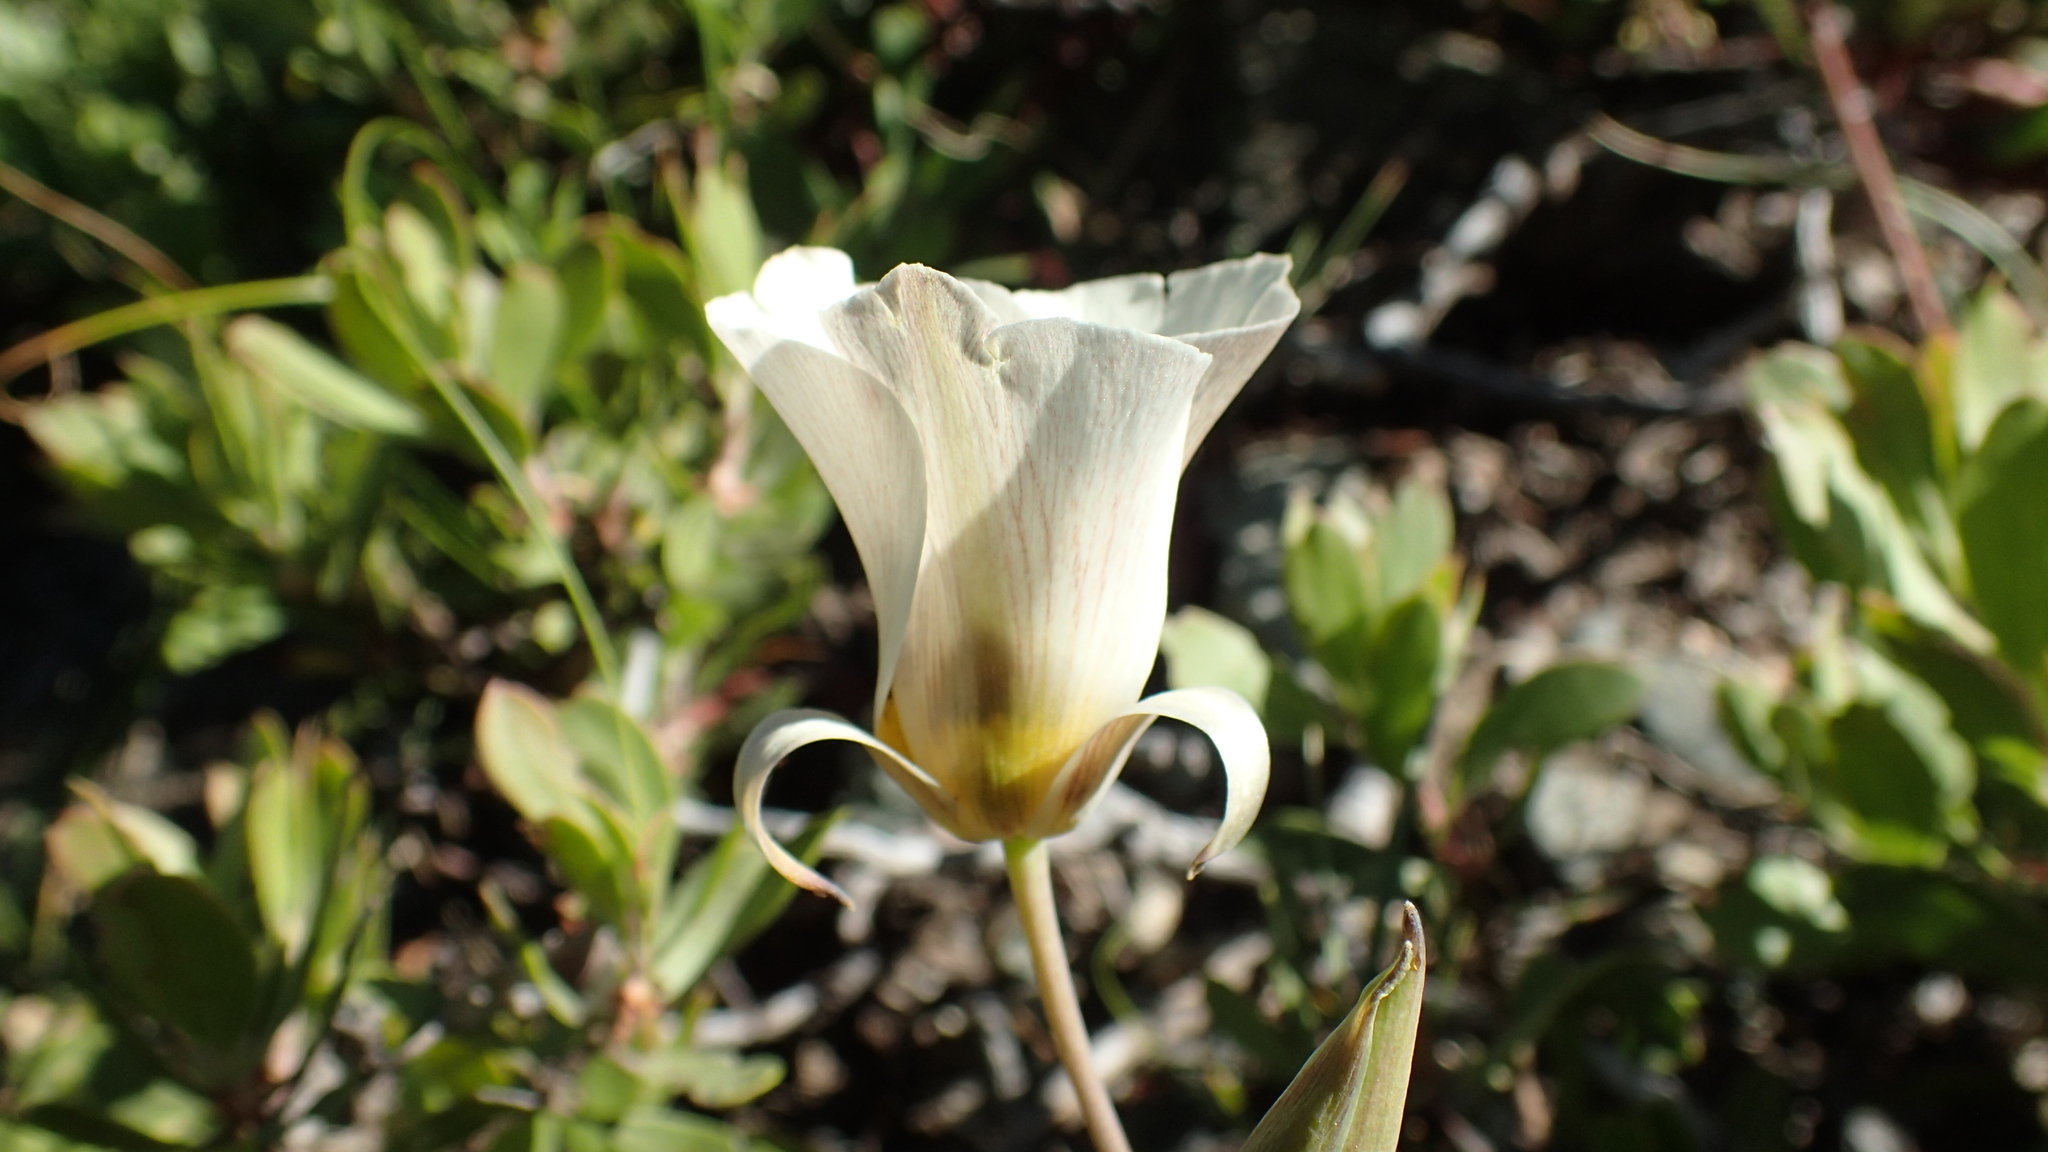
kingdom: Plantae
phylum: Tracheophyta
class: Liliopsida
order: Liliales
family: Liliaceae
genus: Calochortus
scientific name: Calochortus leichtlinii
